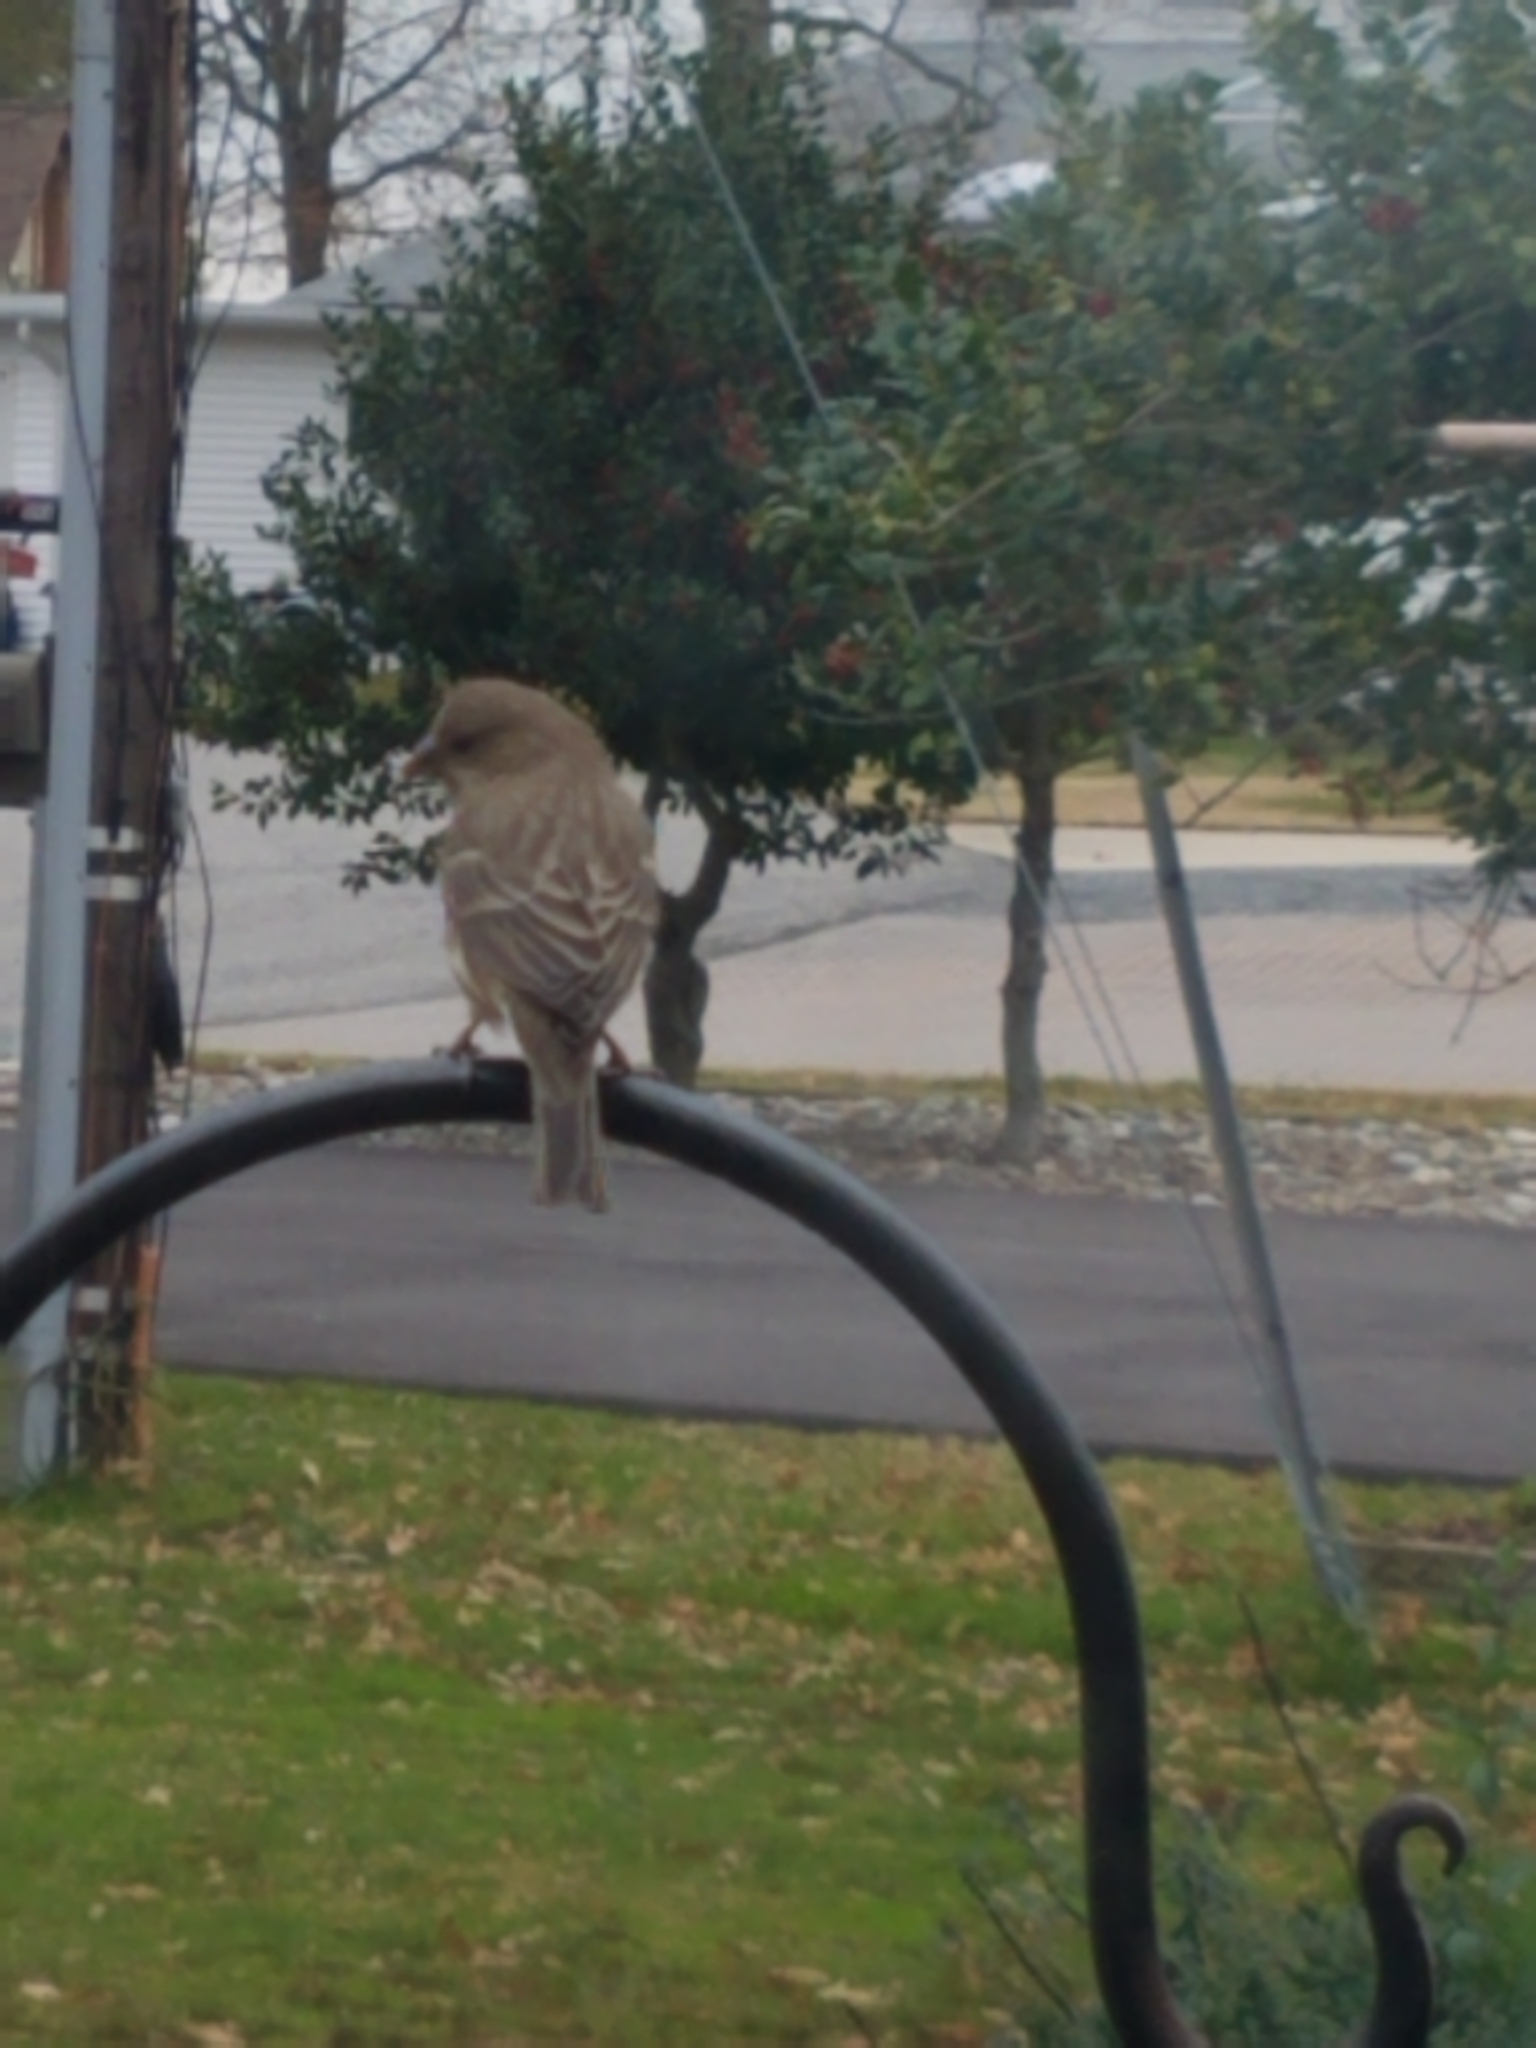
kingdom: Animalia
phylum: Chordata
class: Aves
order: Passeriformes
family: Fringillidae
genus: Haemorhous
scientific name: Haemorhous mexicanus
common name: House finch
